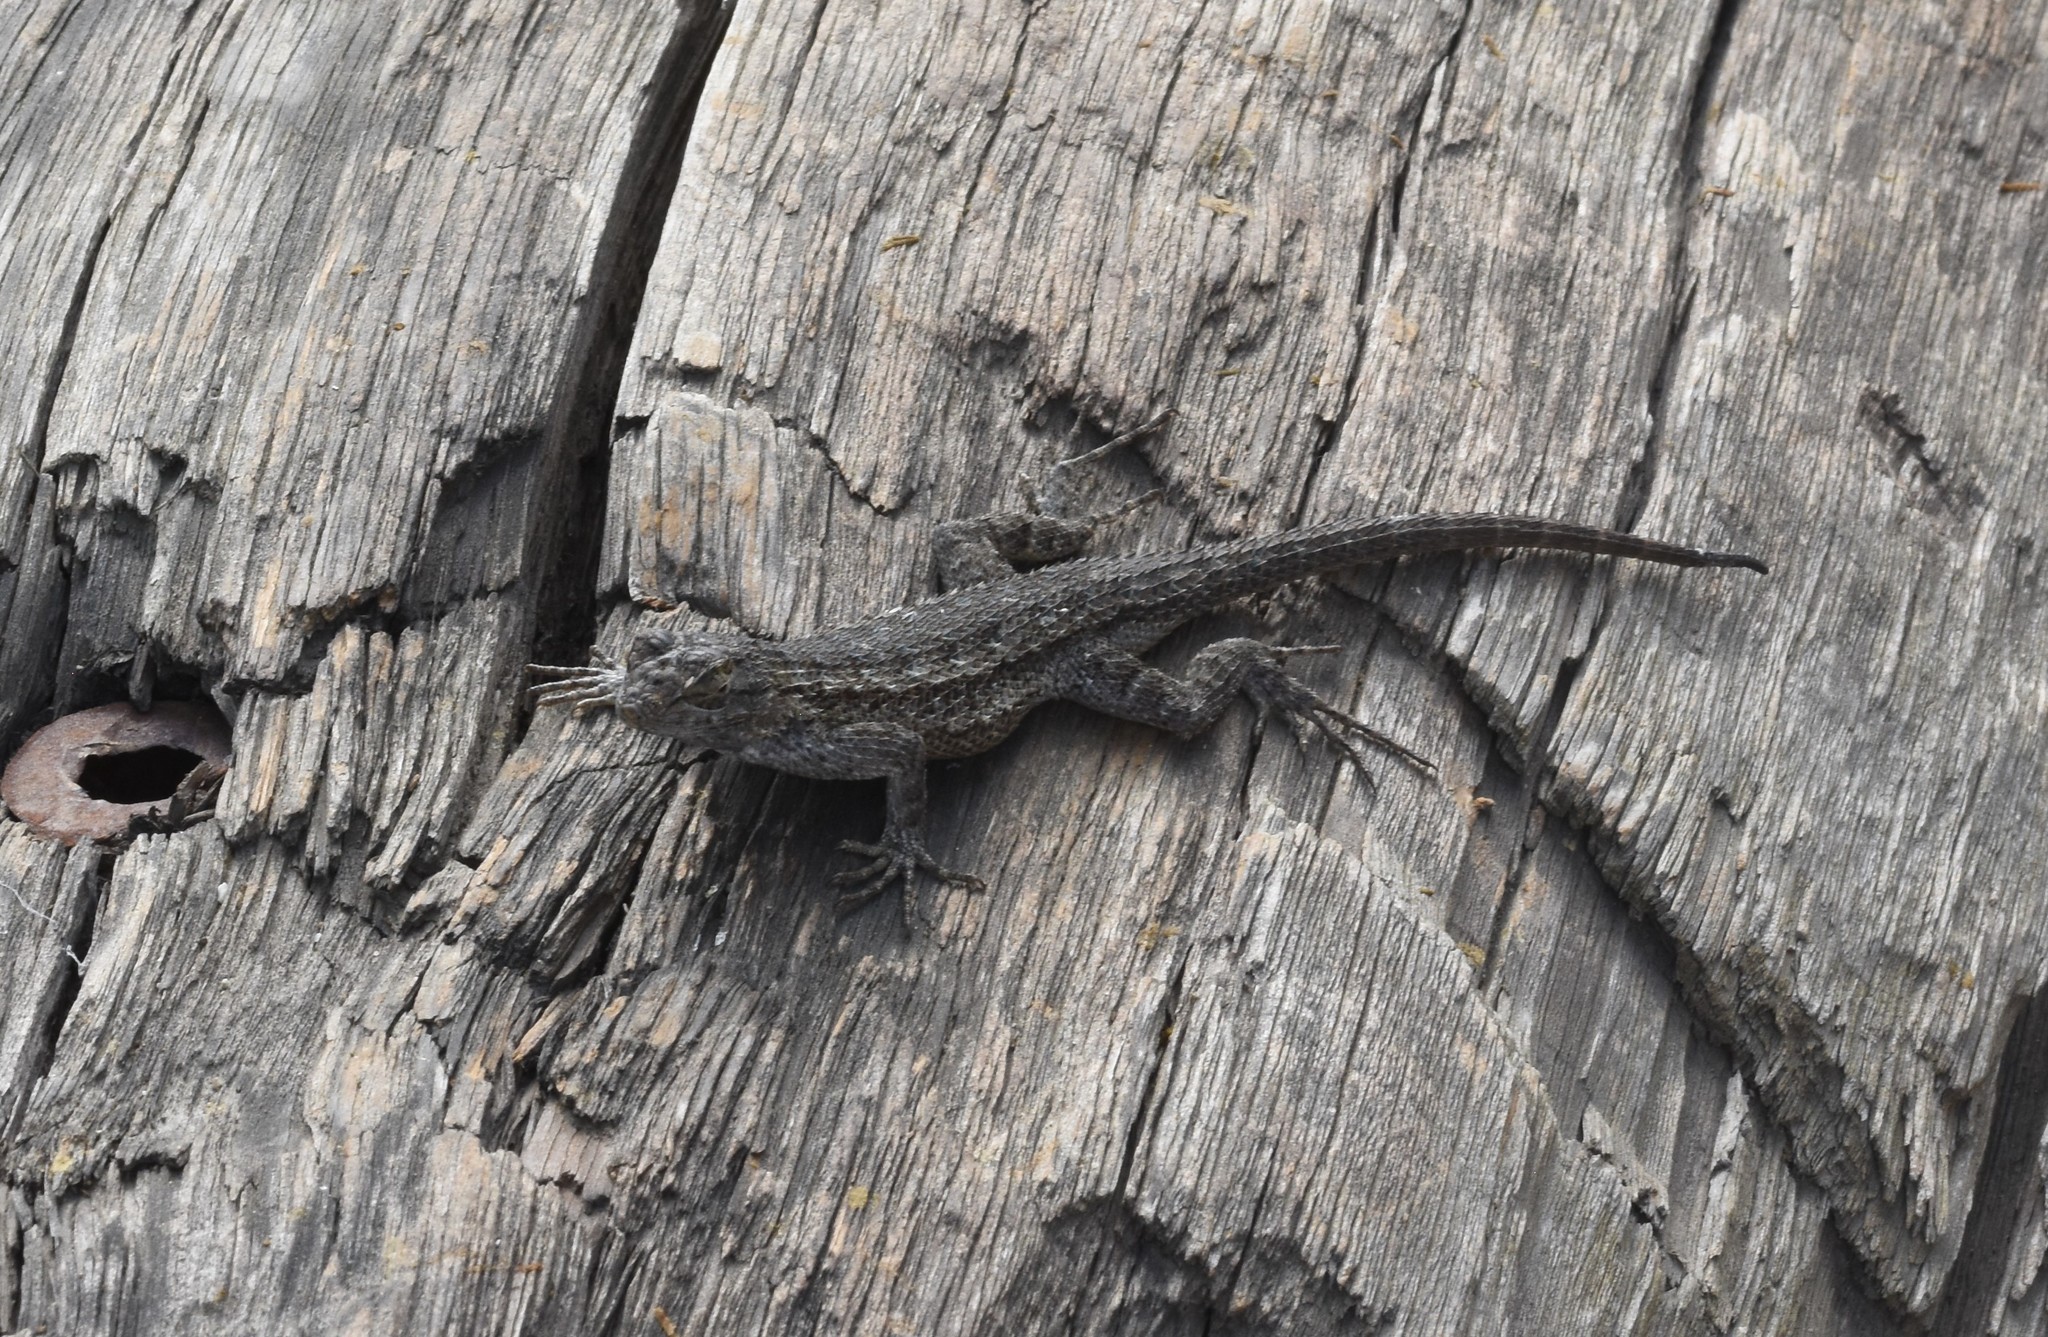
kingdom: Animalia
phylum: Chordata
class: Squamata
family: Phrynosomatidae
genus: Sceloporus
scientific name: Sceloporus occidentalis
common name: Western fence lizard
